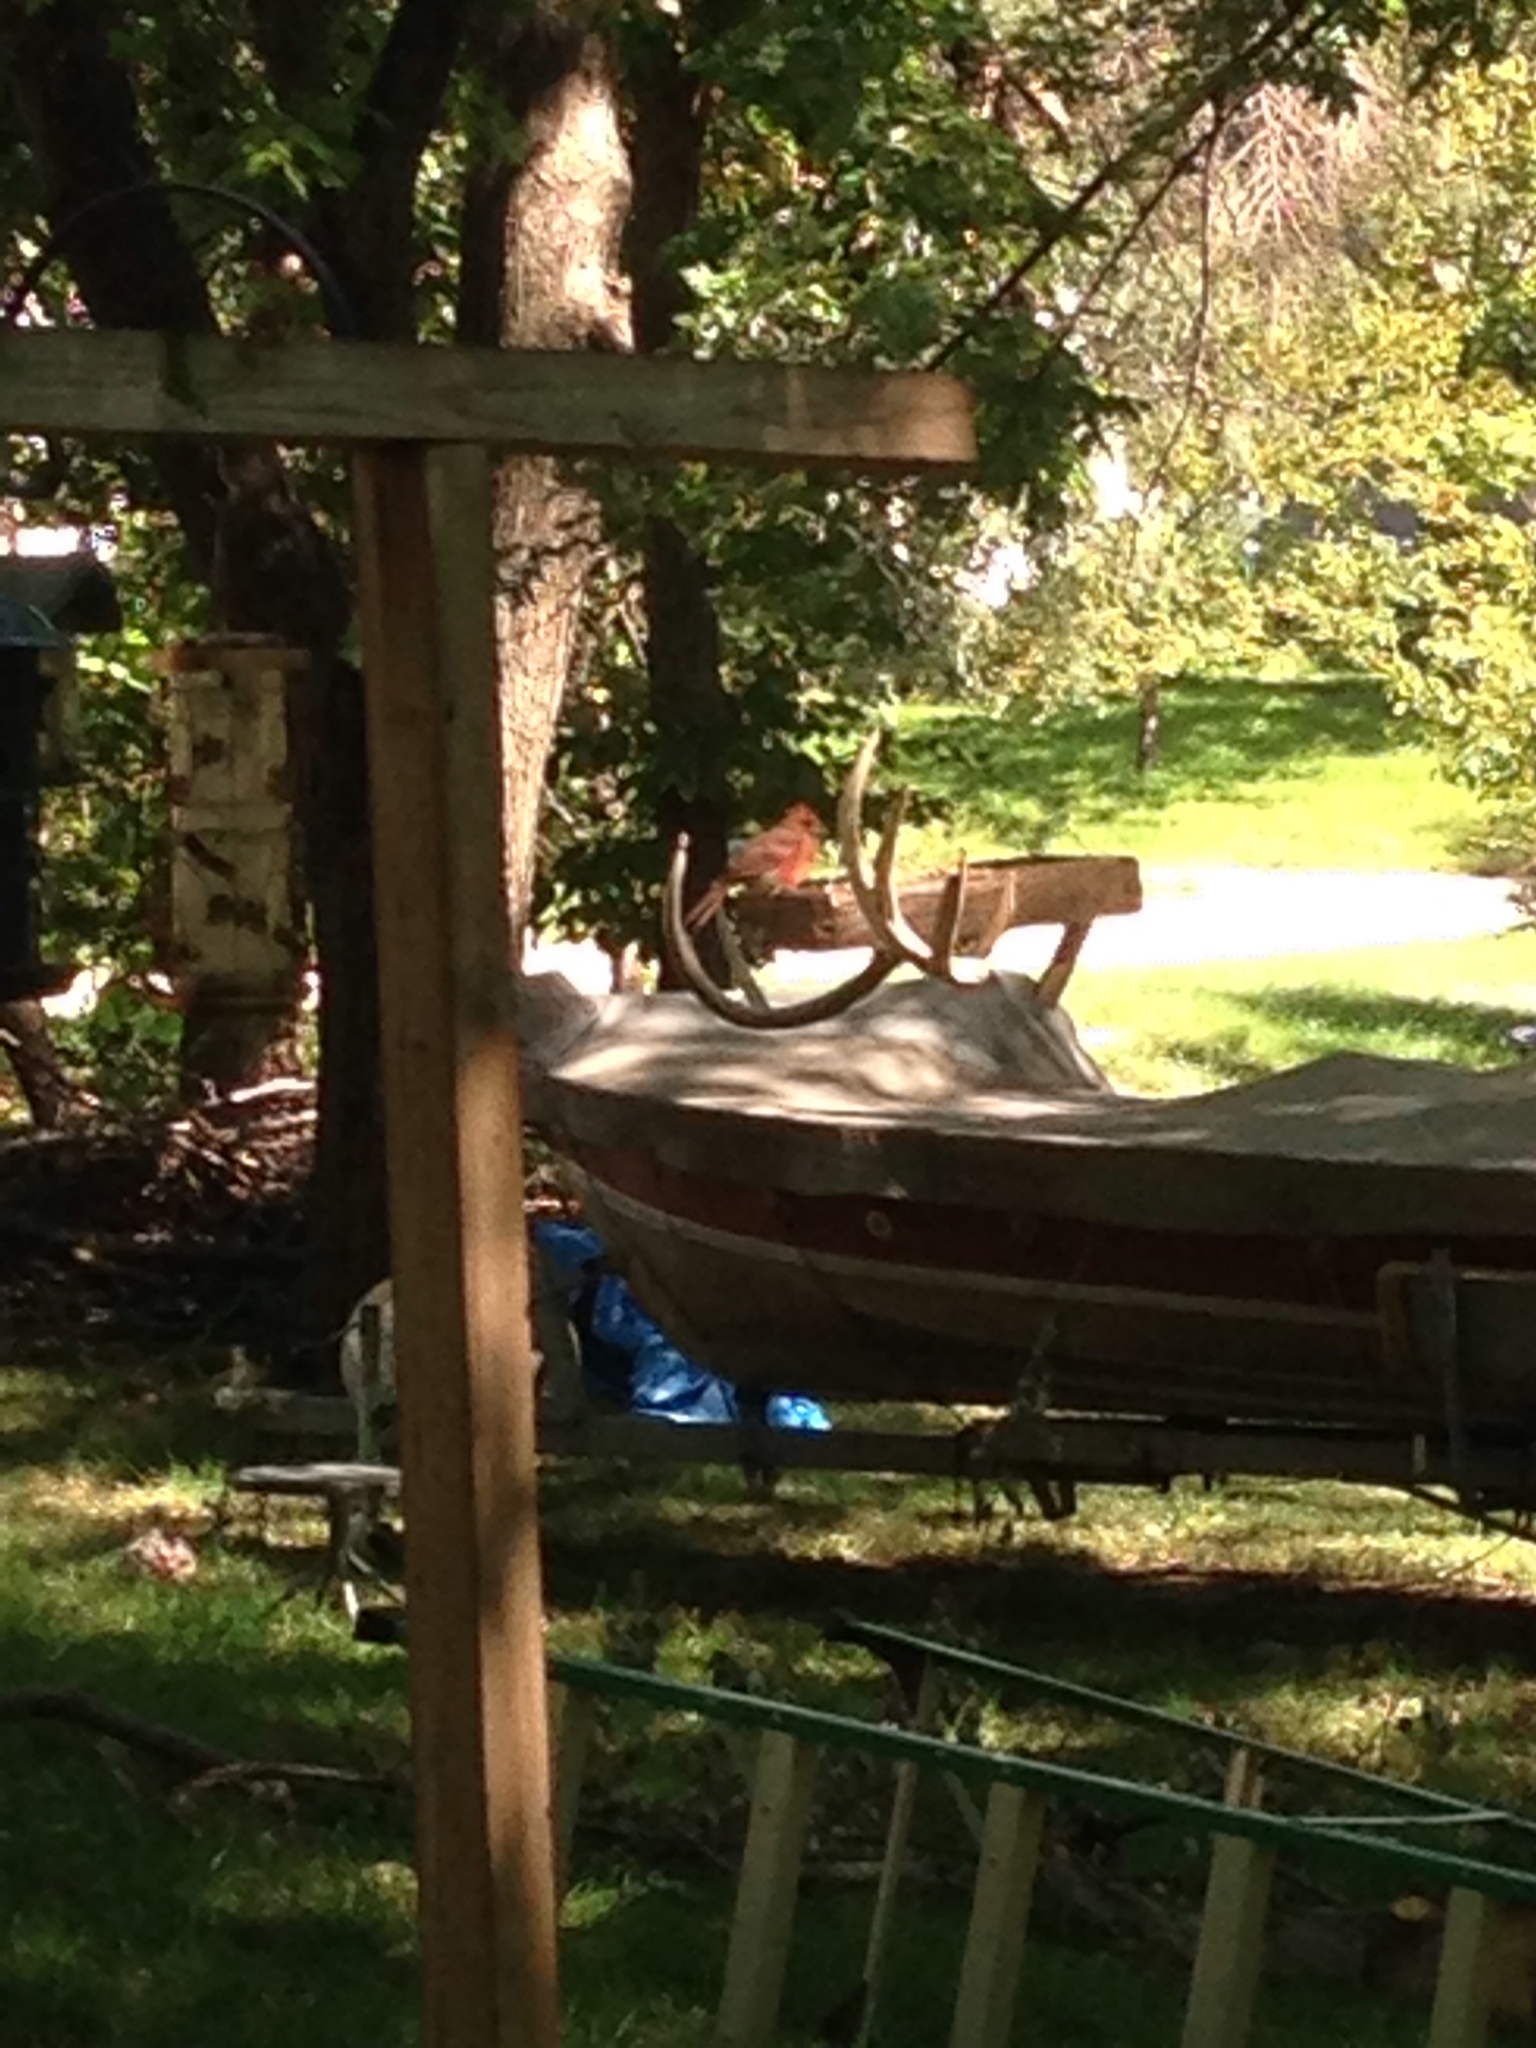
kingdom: Animalia
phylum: Chordata
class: Aves
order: Passeriformes
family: Cardinalidae
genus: Cardinalis
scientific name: Cardinalis cardinalis
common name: Northern cardinal
